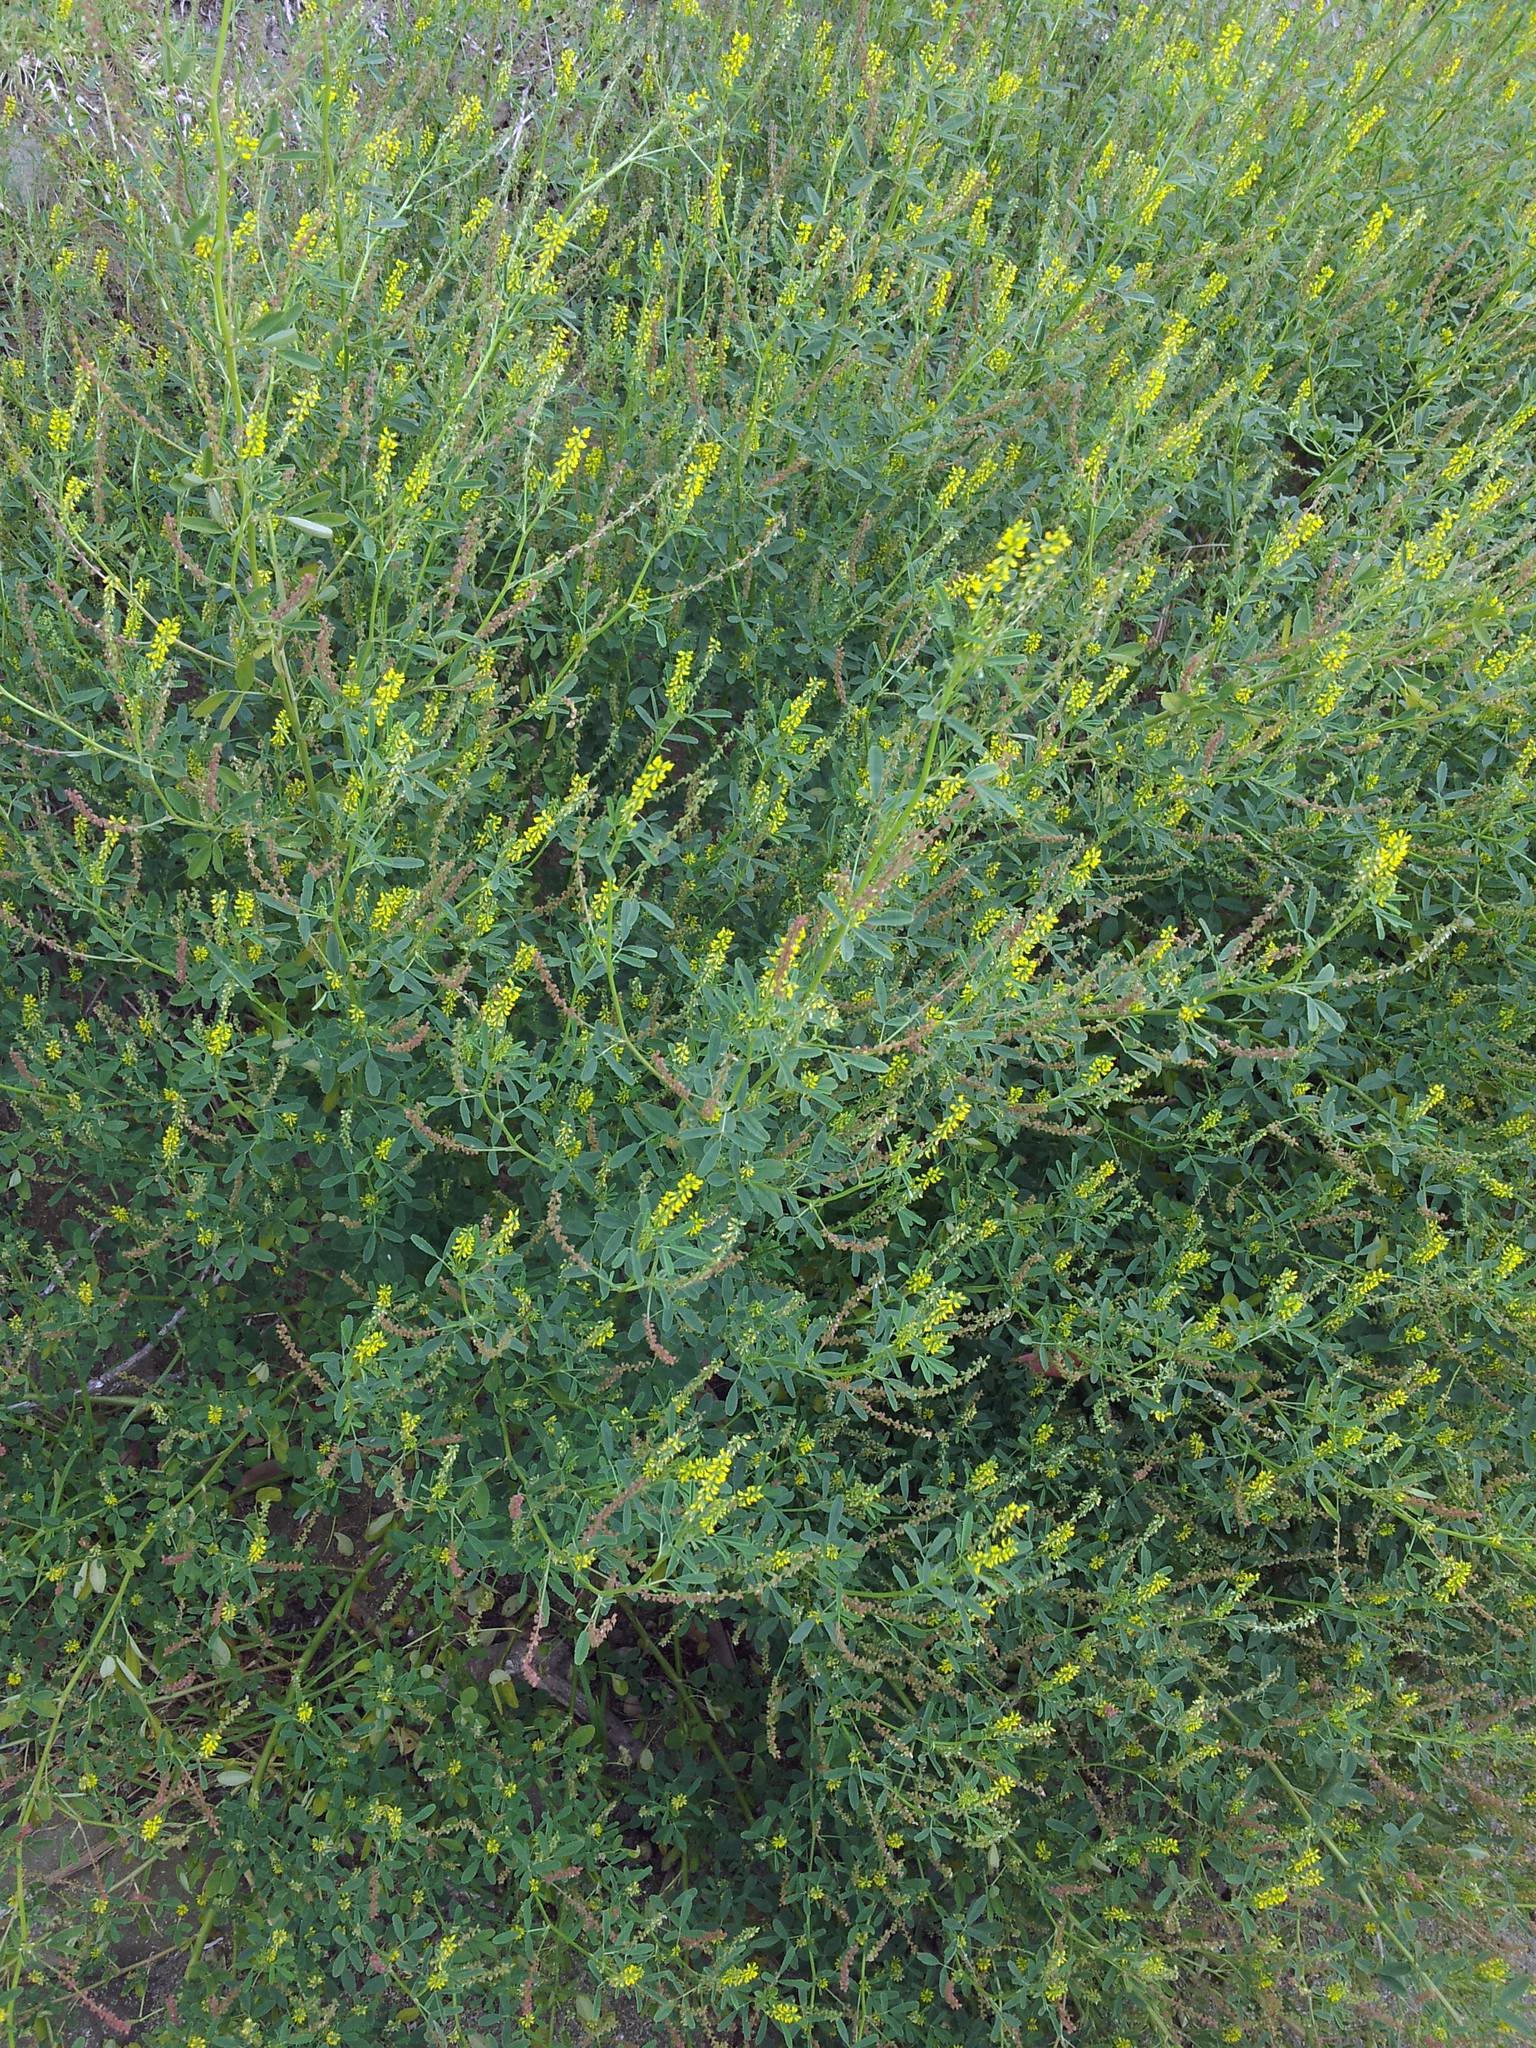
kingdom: Plantae
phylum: Tracheophyta
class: Magnoliopsida
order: Fabales
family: Fabaceae
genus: Melilotus
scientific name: Melilotus indicus
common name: Small melilot
